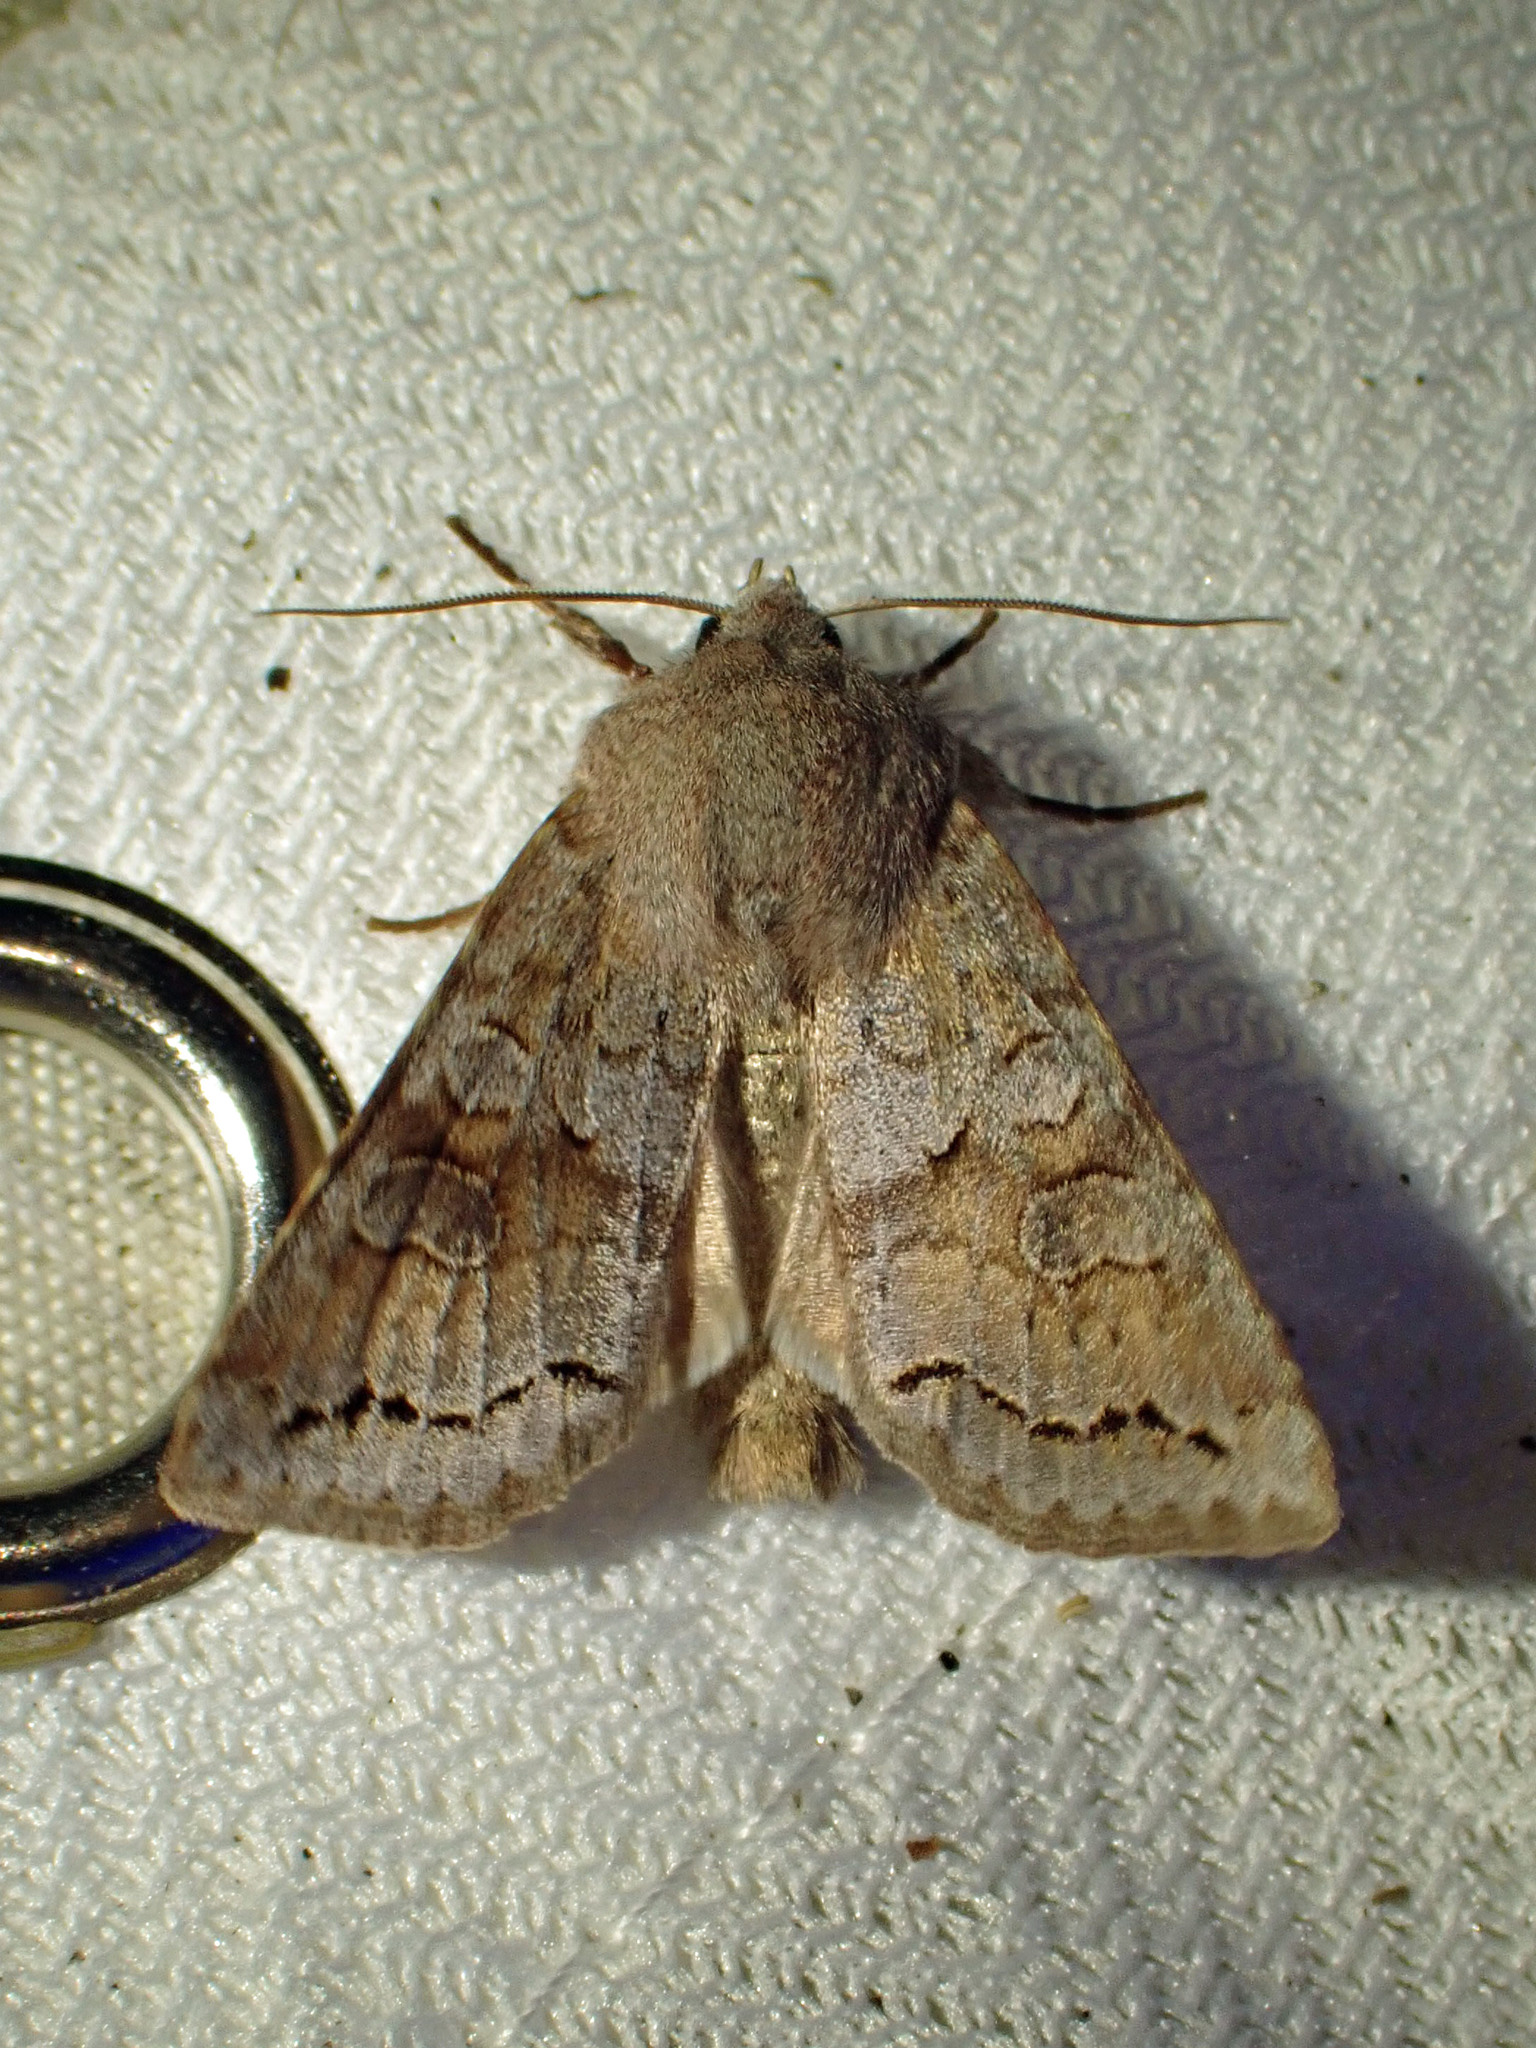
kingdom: Animalia
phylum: Arthropoda
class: Insecta
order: Lepidoptera
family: Noctuidae
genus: Orthosia
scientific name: Orthosia revicta
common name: Rusty whitesided caterpillar
